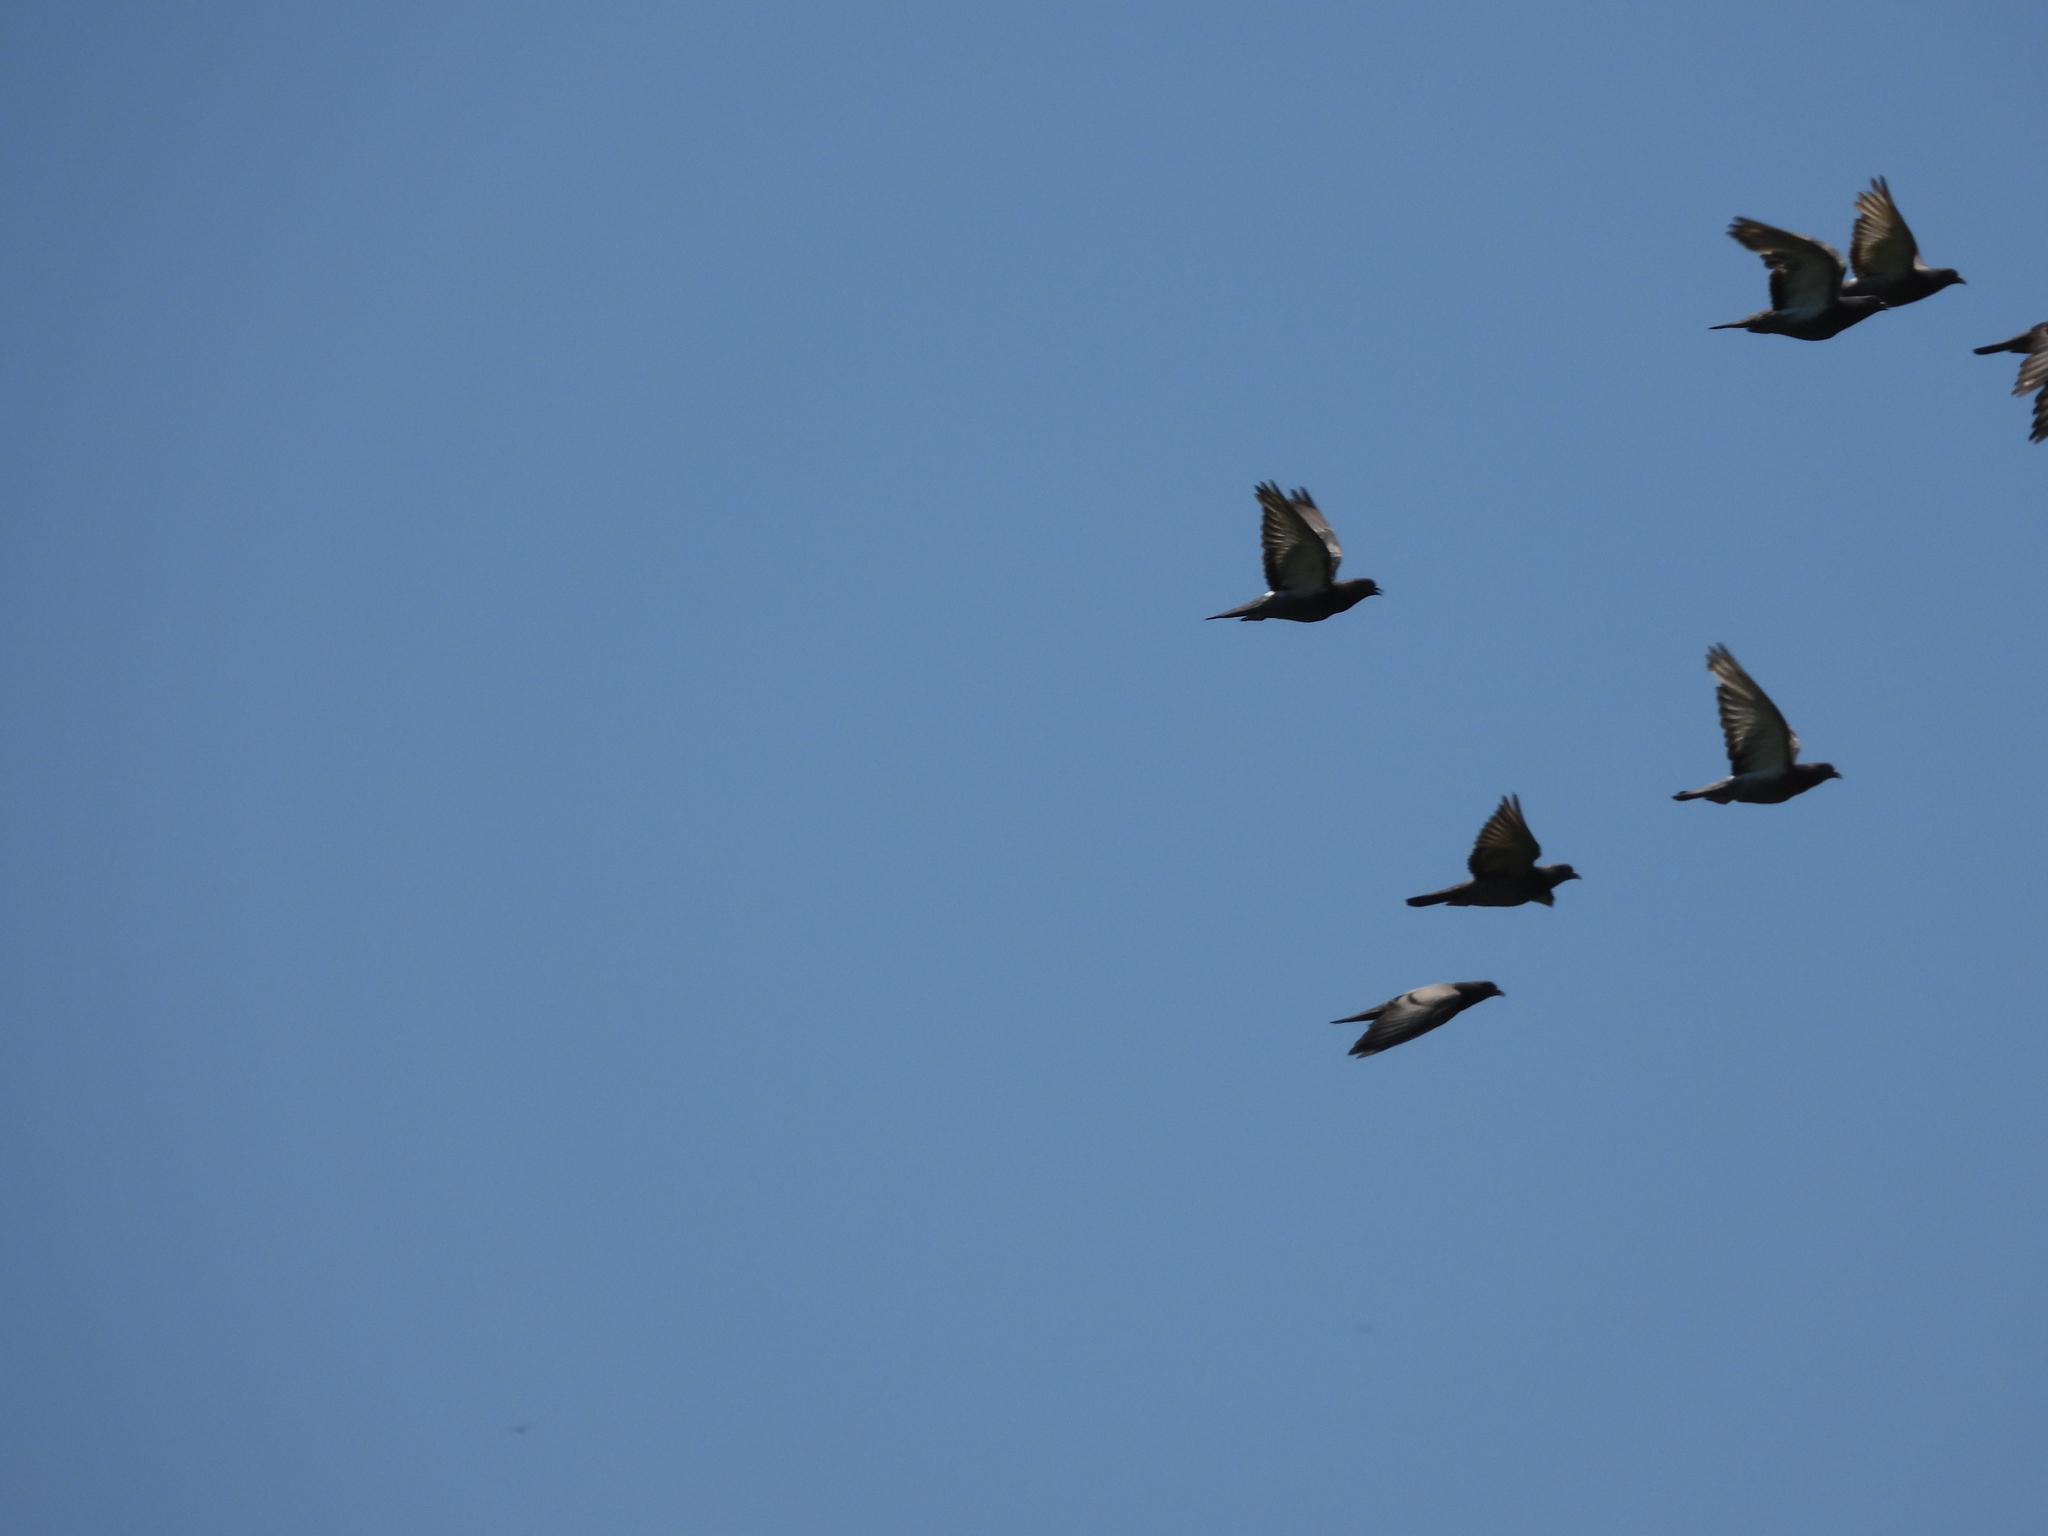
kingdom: Animalia
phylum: Chordata
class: Aves
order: Columbiformes
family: Columbidae
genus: Columba
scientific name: Columba livia
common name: Rock pigeon
